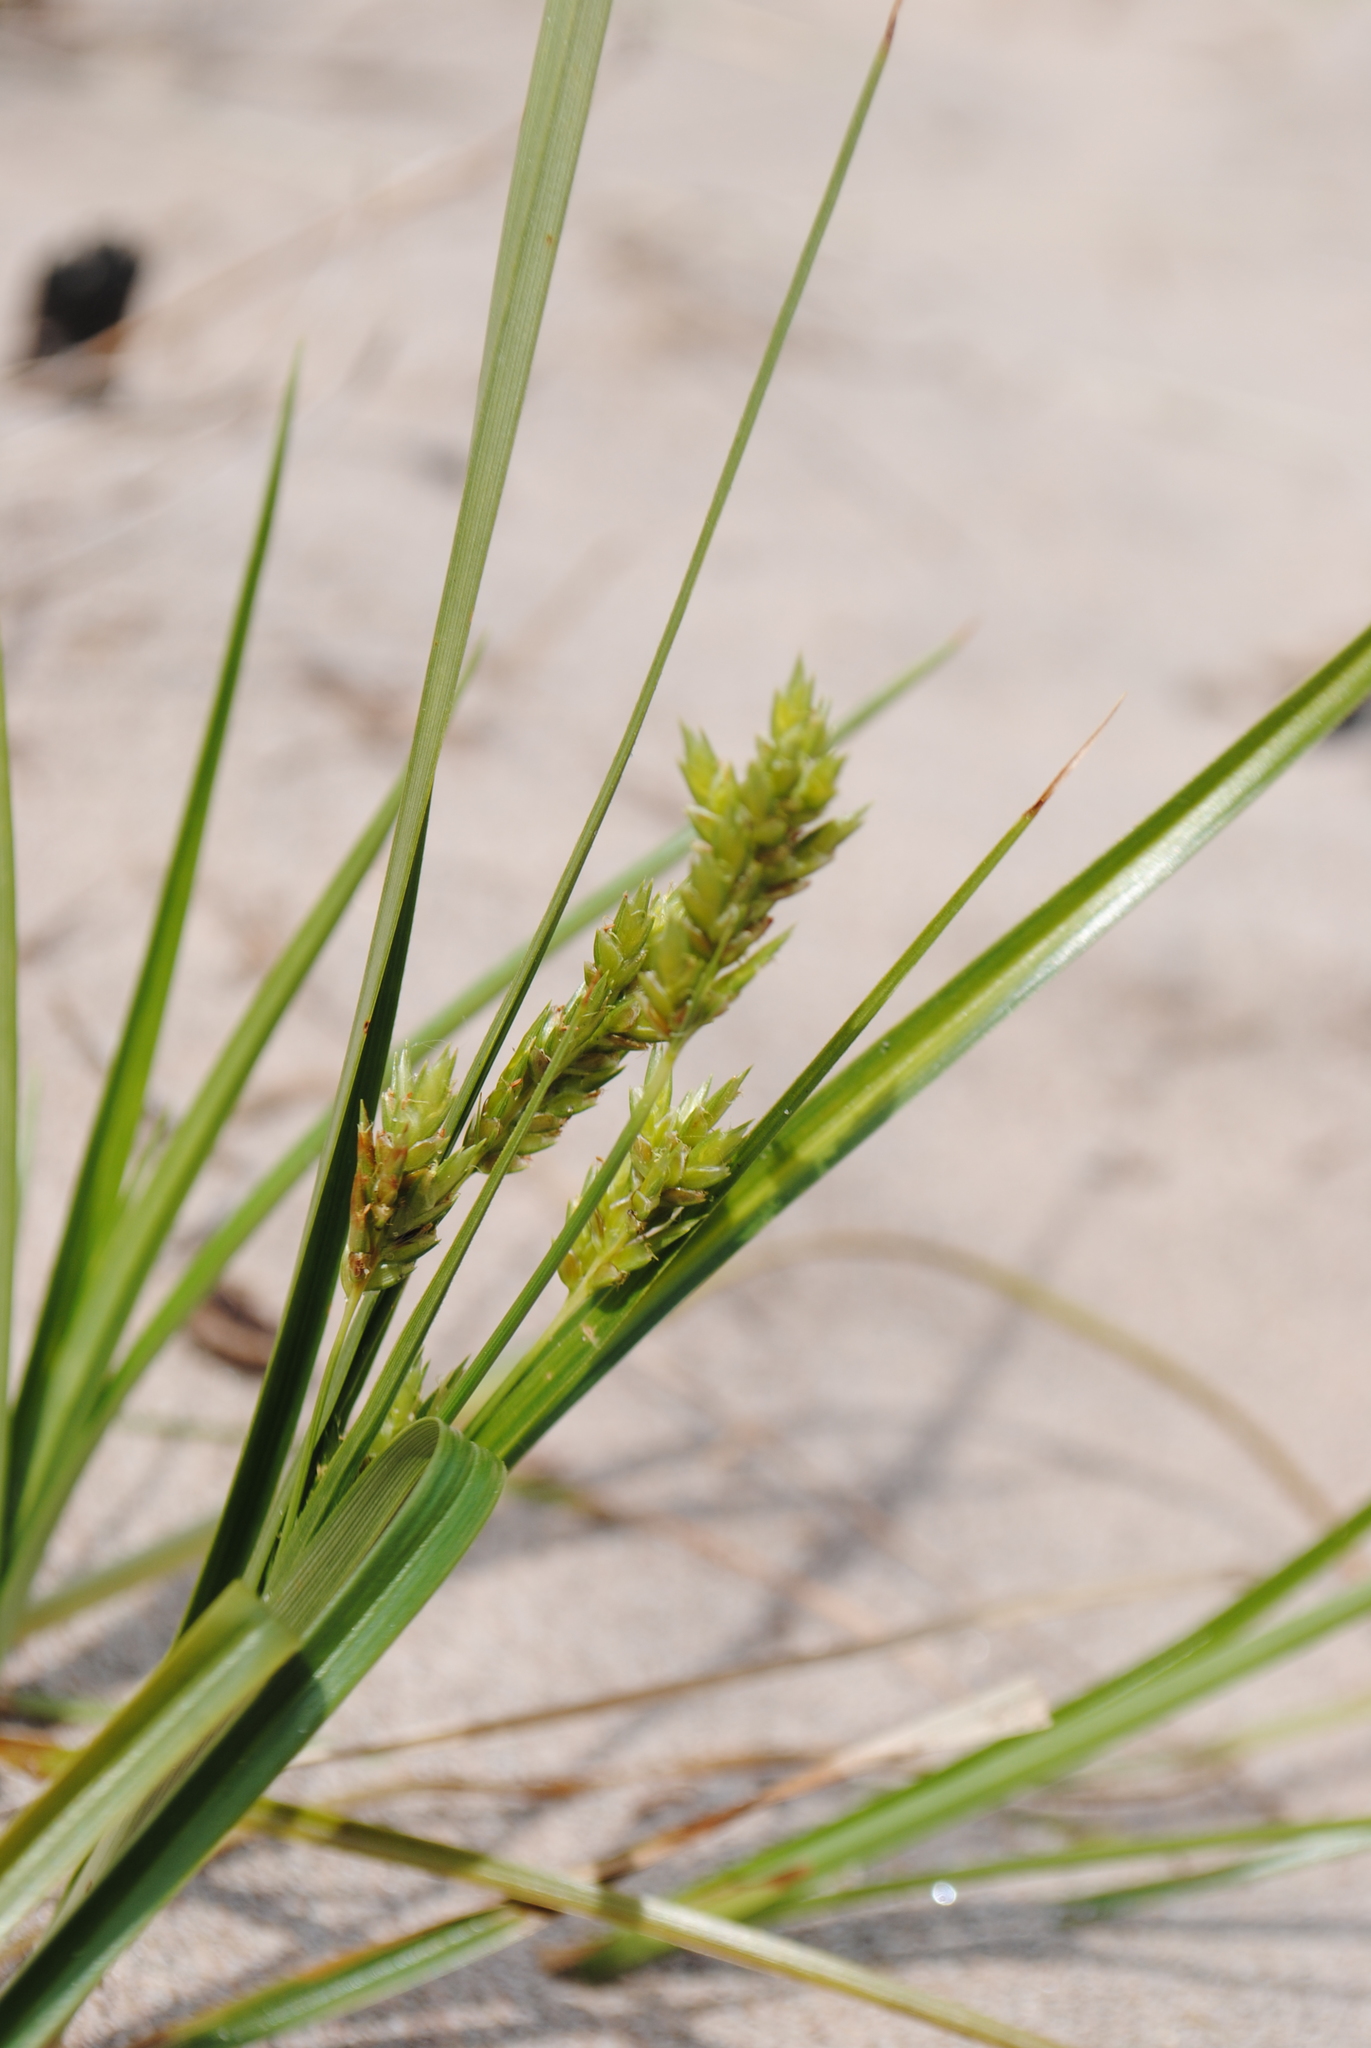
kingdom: Plantae
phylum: Tracheophyta
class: Liliopsida
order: Poales
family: Cyperaceae
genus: Cyperus
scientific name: Cyperus schweinitzii
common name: Schweinitz's cyperus
